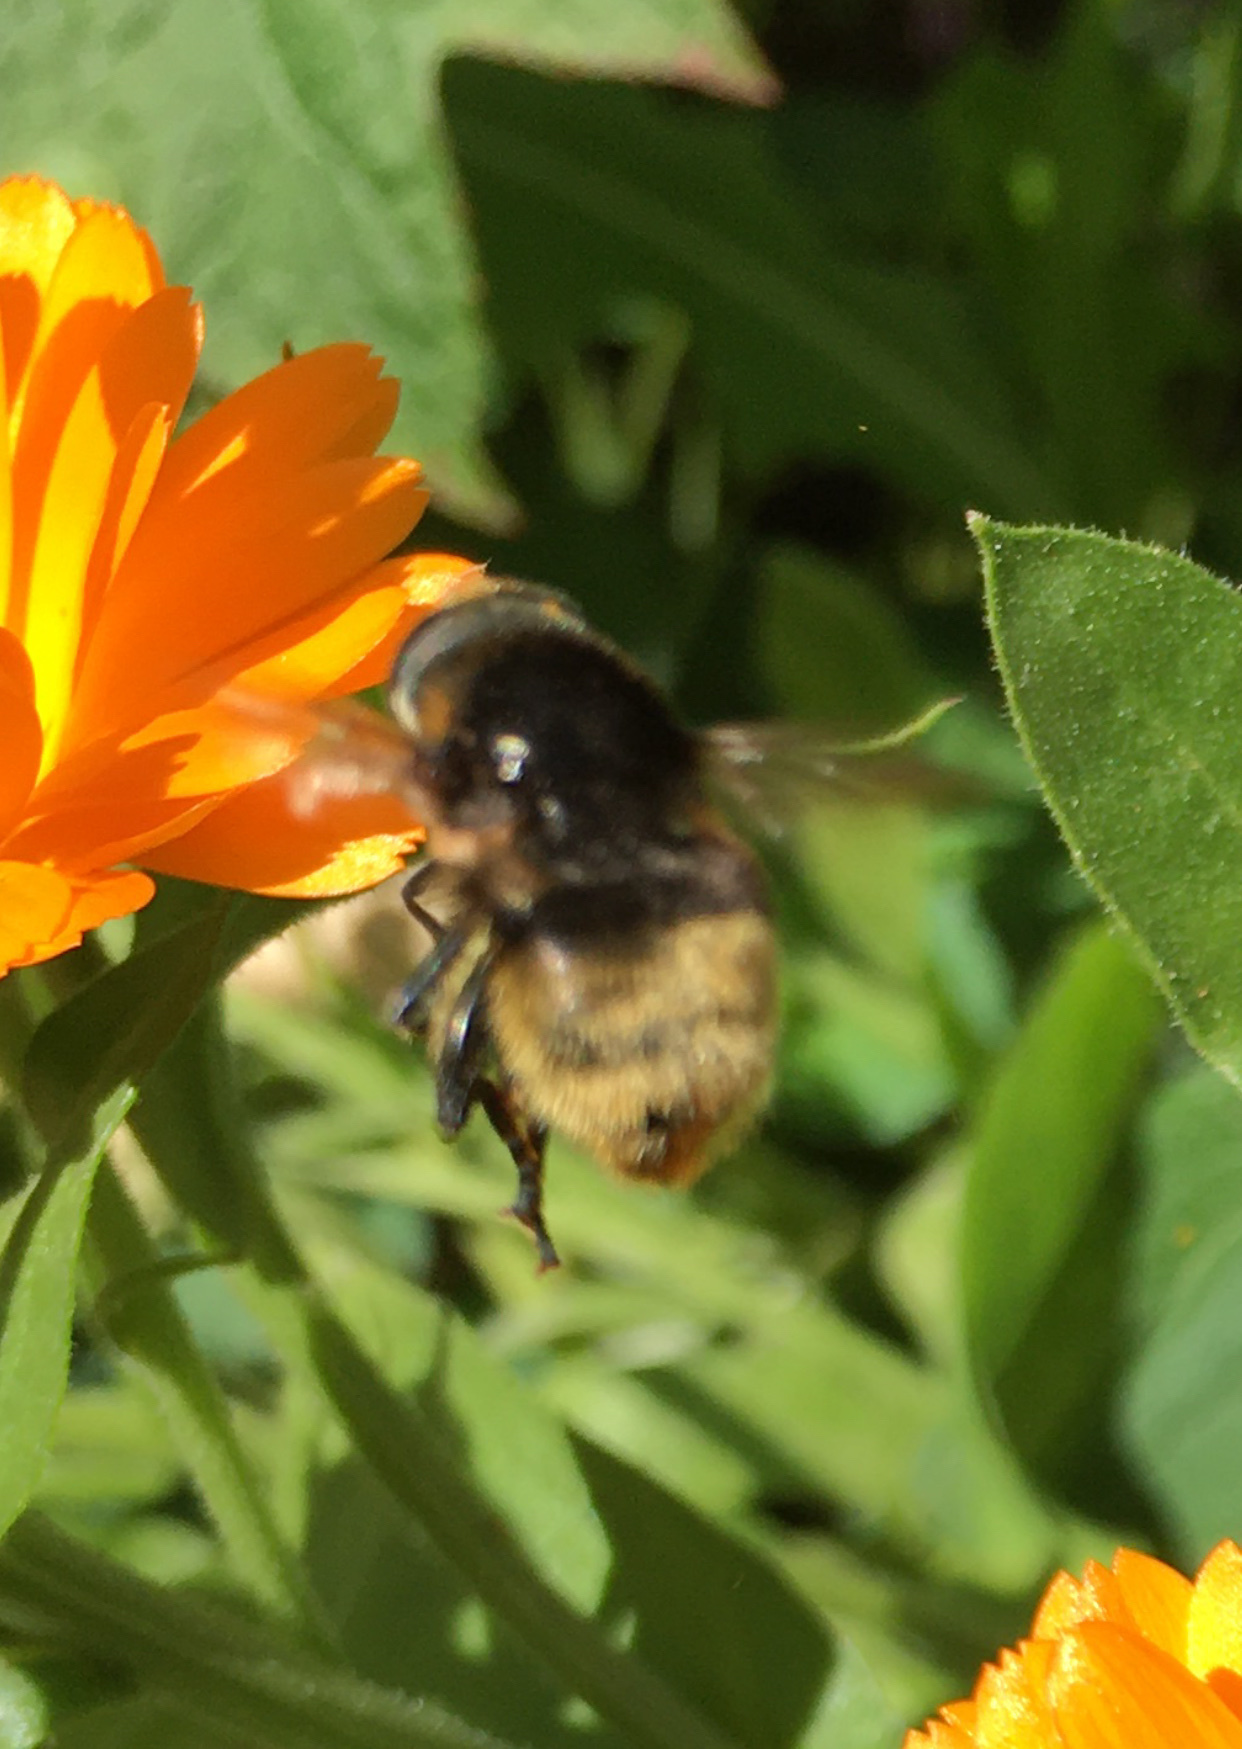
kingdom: Animalia
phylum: Arthropoda
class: Insecta
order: Diptera
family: Syrphidae
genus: Merodon
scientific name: Merodon equestris
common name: Greater bulb-fly
